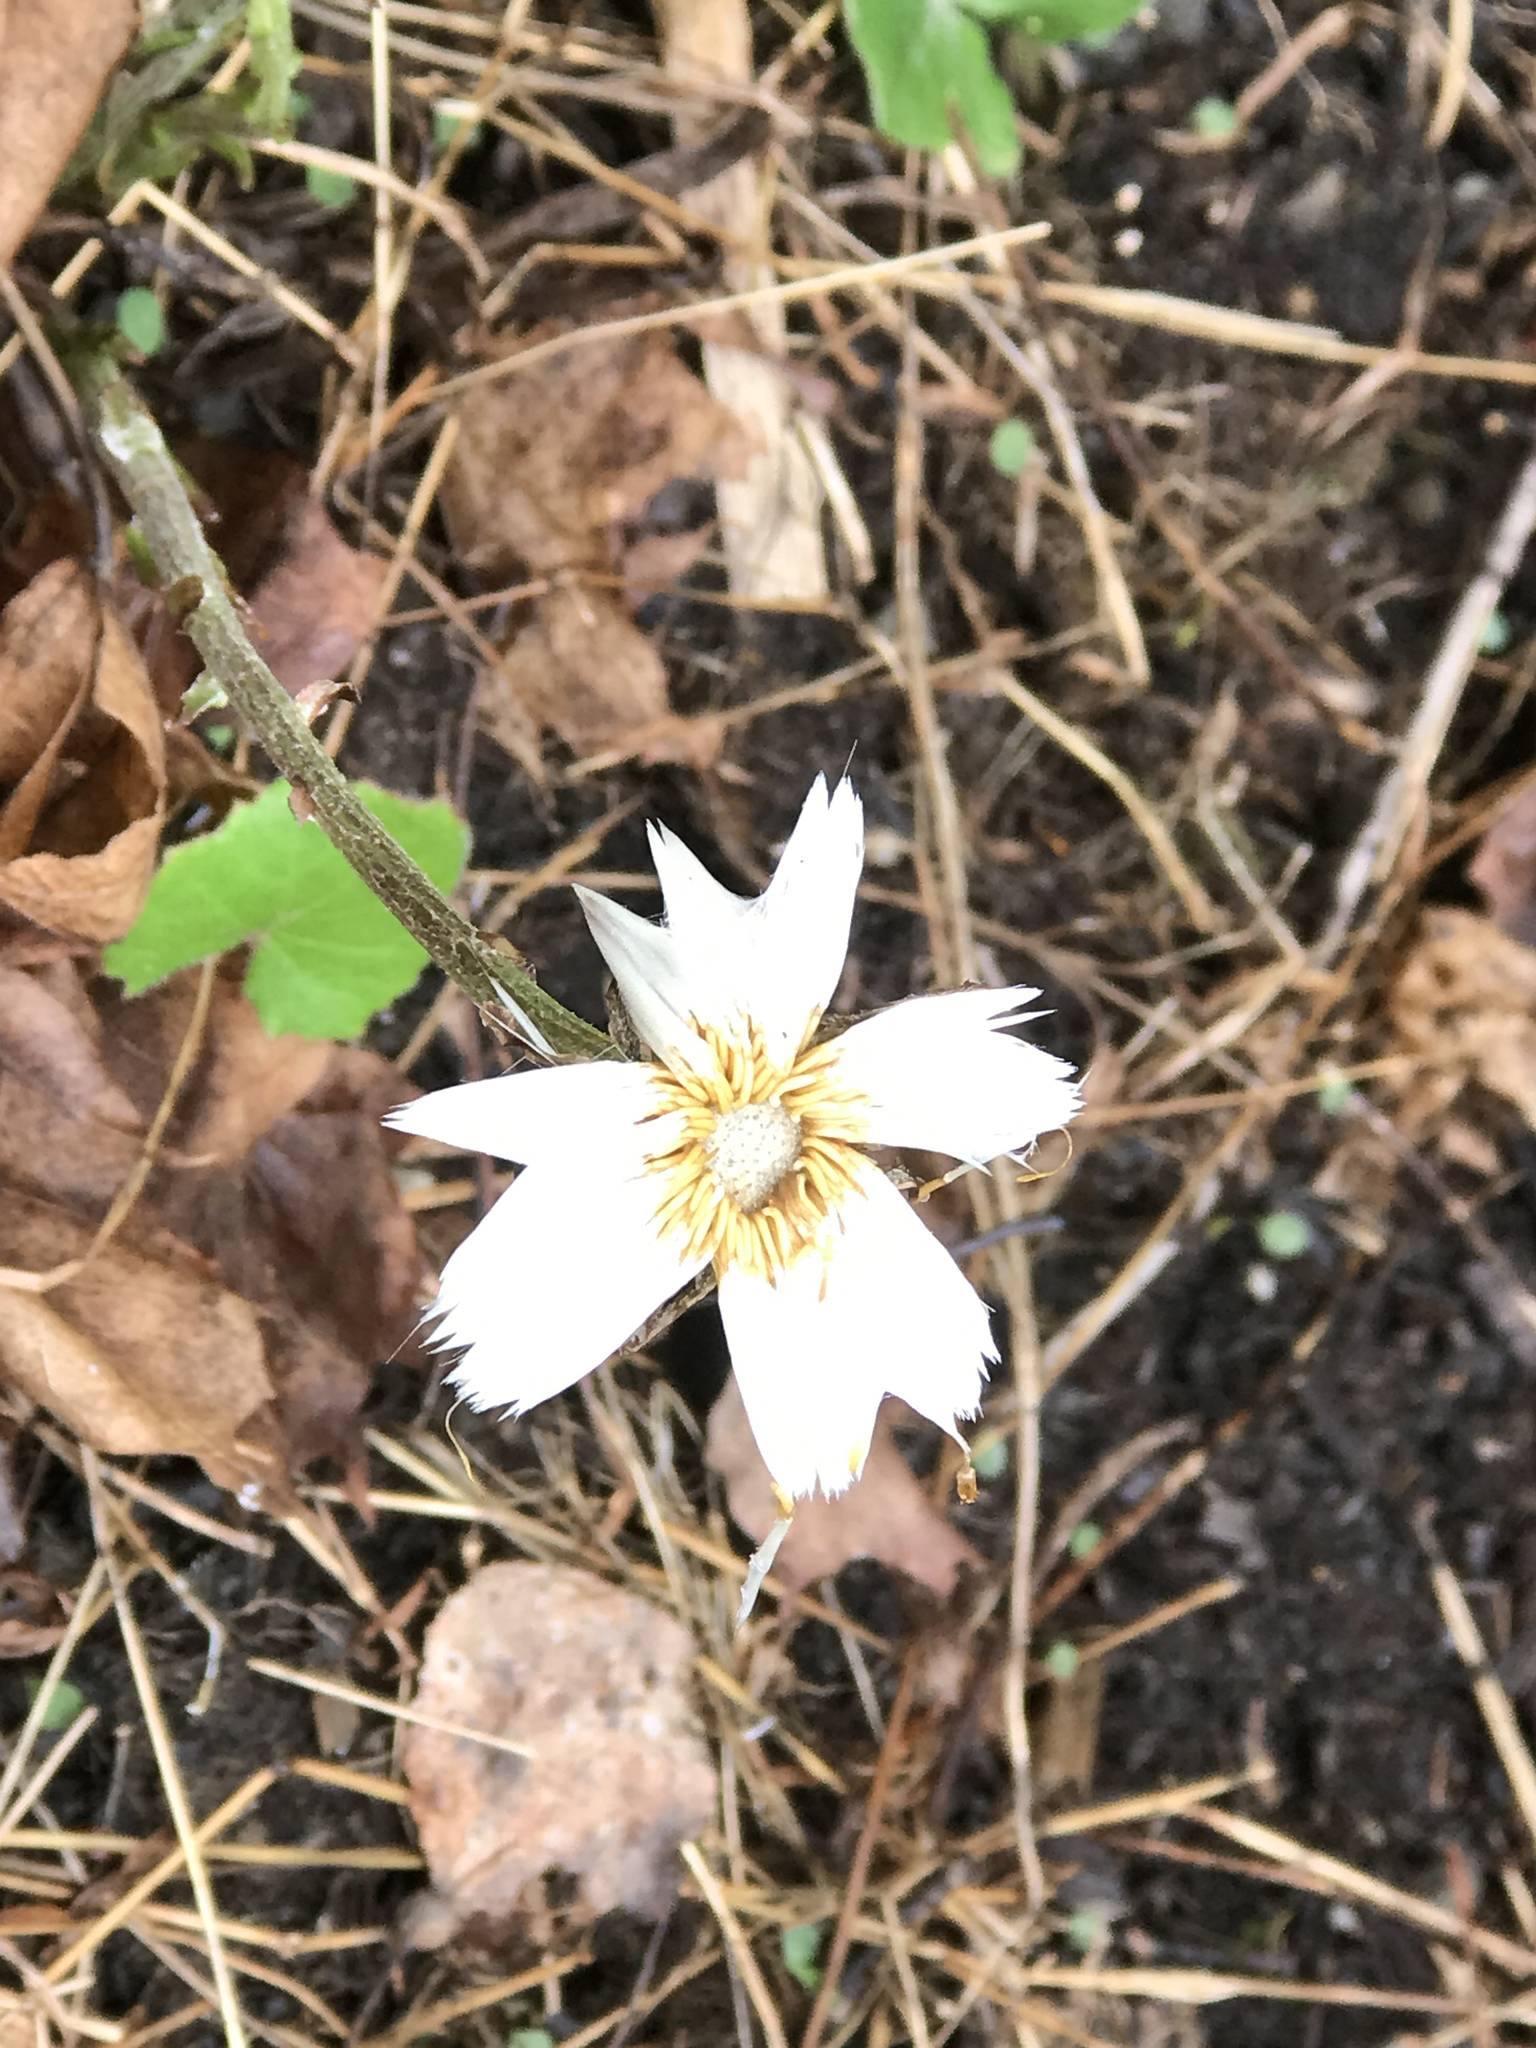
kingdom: Plantae
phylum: Tracheophyta
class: Magnoliopsida
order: Asterales
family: Asteraceae
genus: Tussilago
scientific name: Tussilago farfara
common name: Coltsfoot
